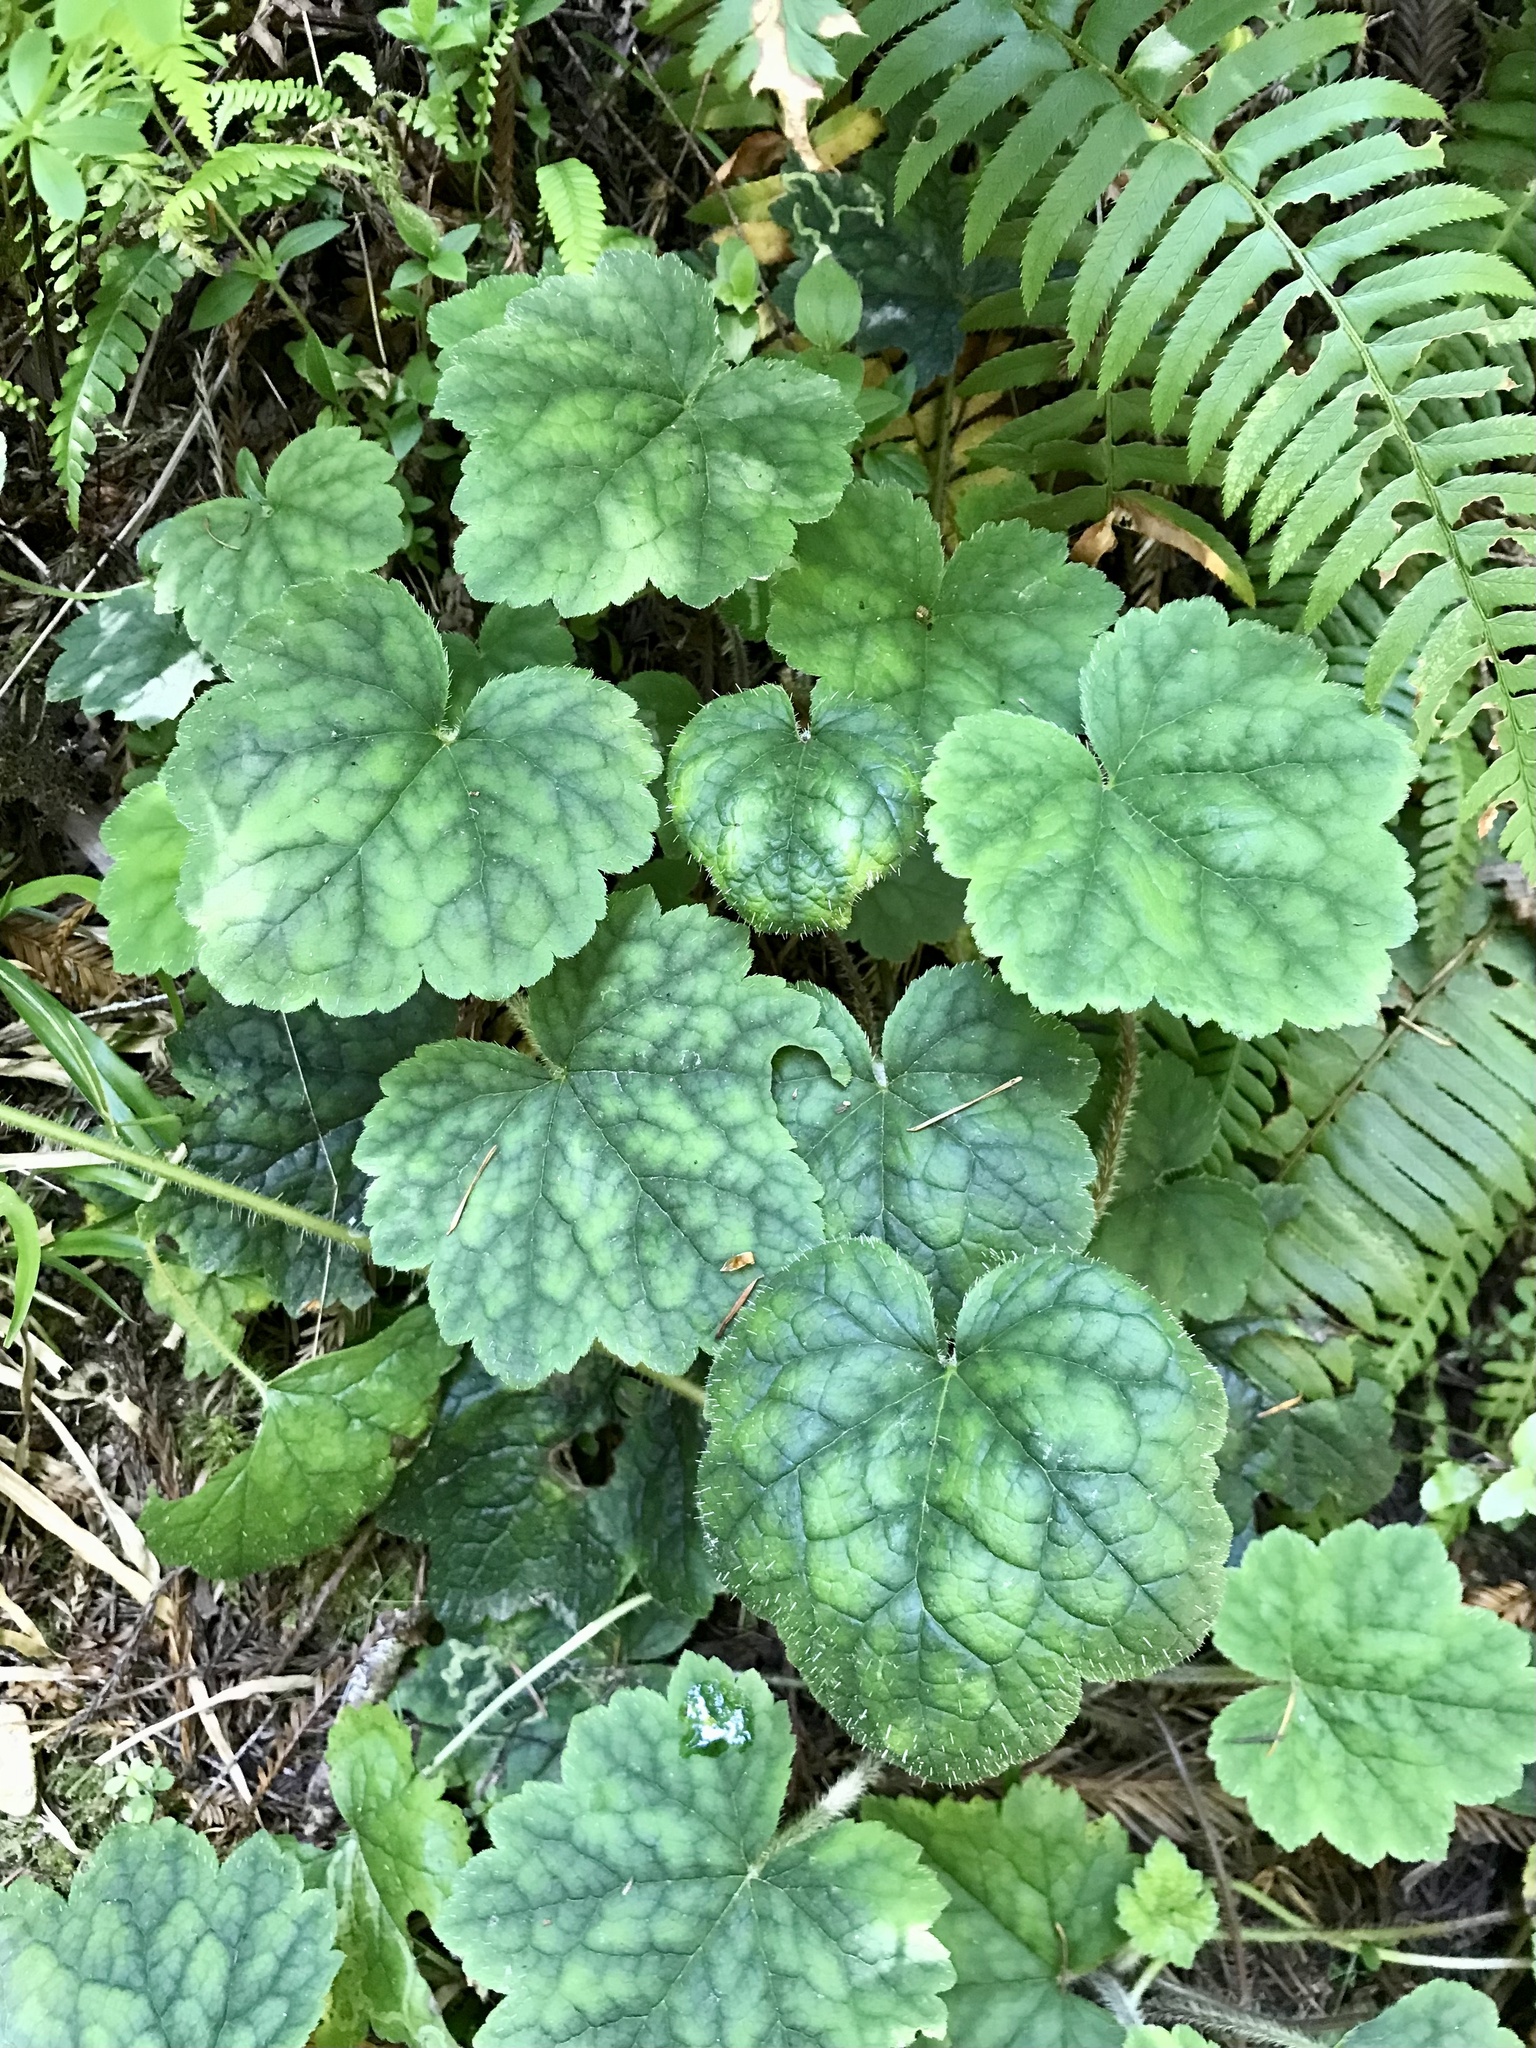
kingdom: Plantae
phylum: Tracheophyta
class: Magnoliopsida
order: Saxifragales
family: Saxifragaceae
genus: Tellima
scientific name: Tellima grandiflora
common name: Fringecups
